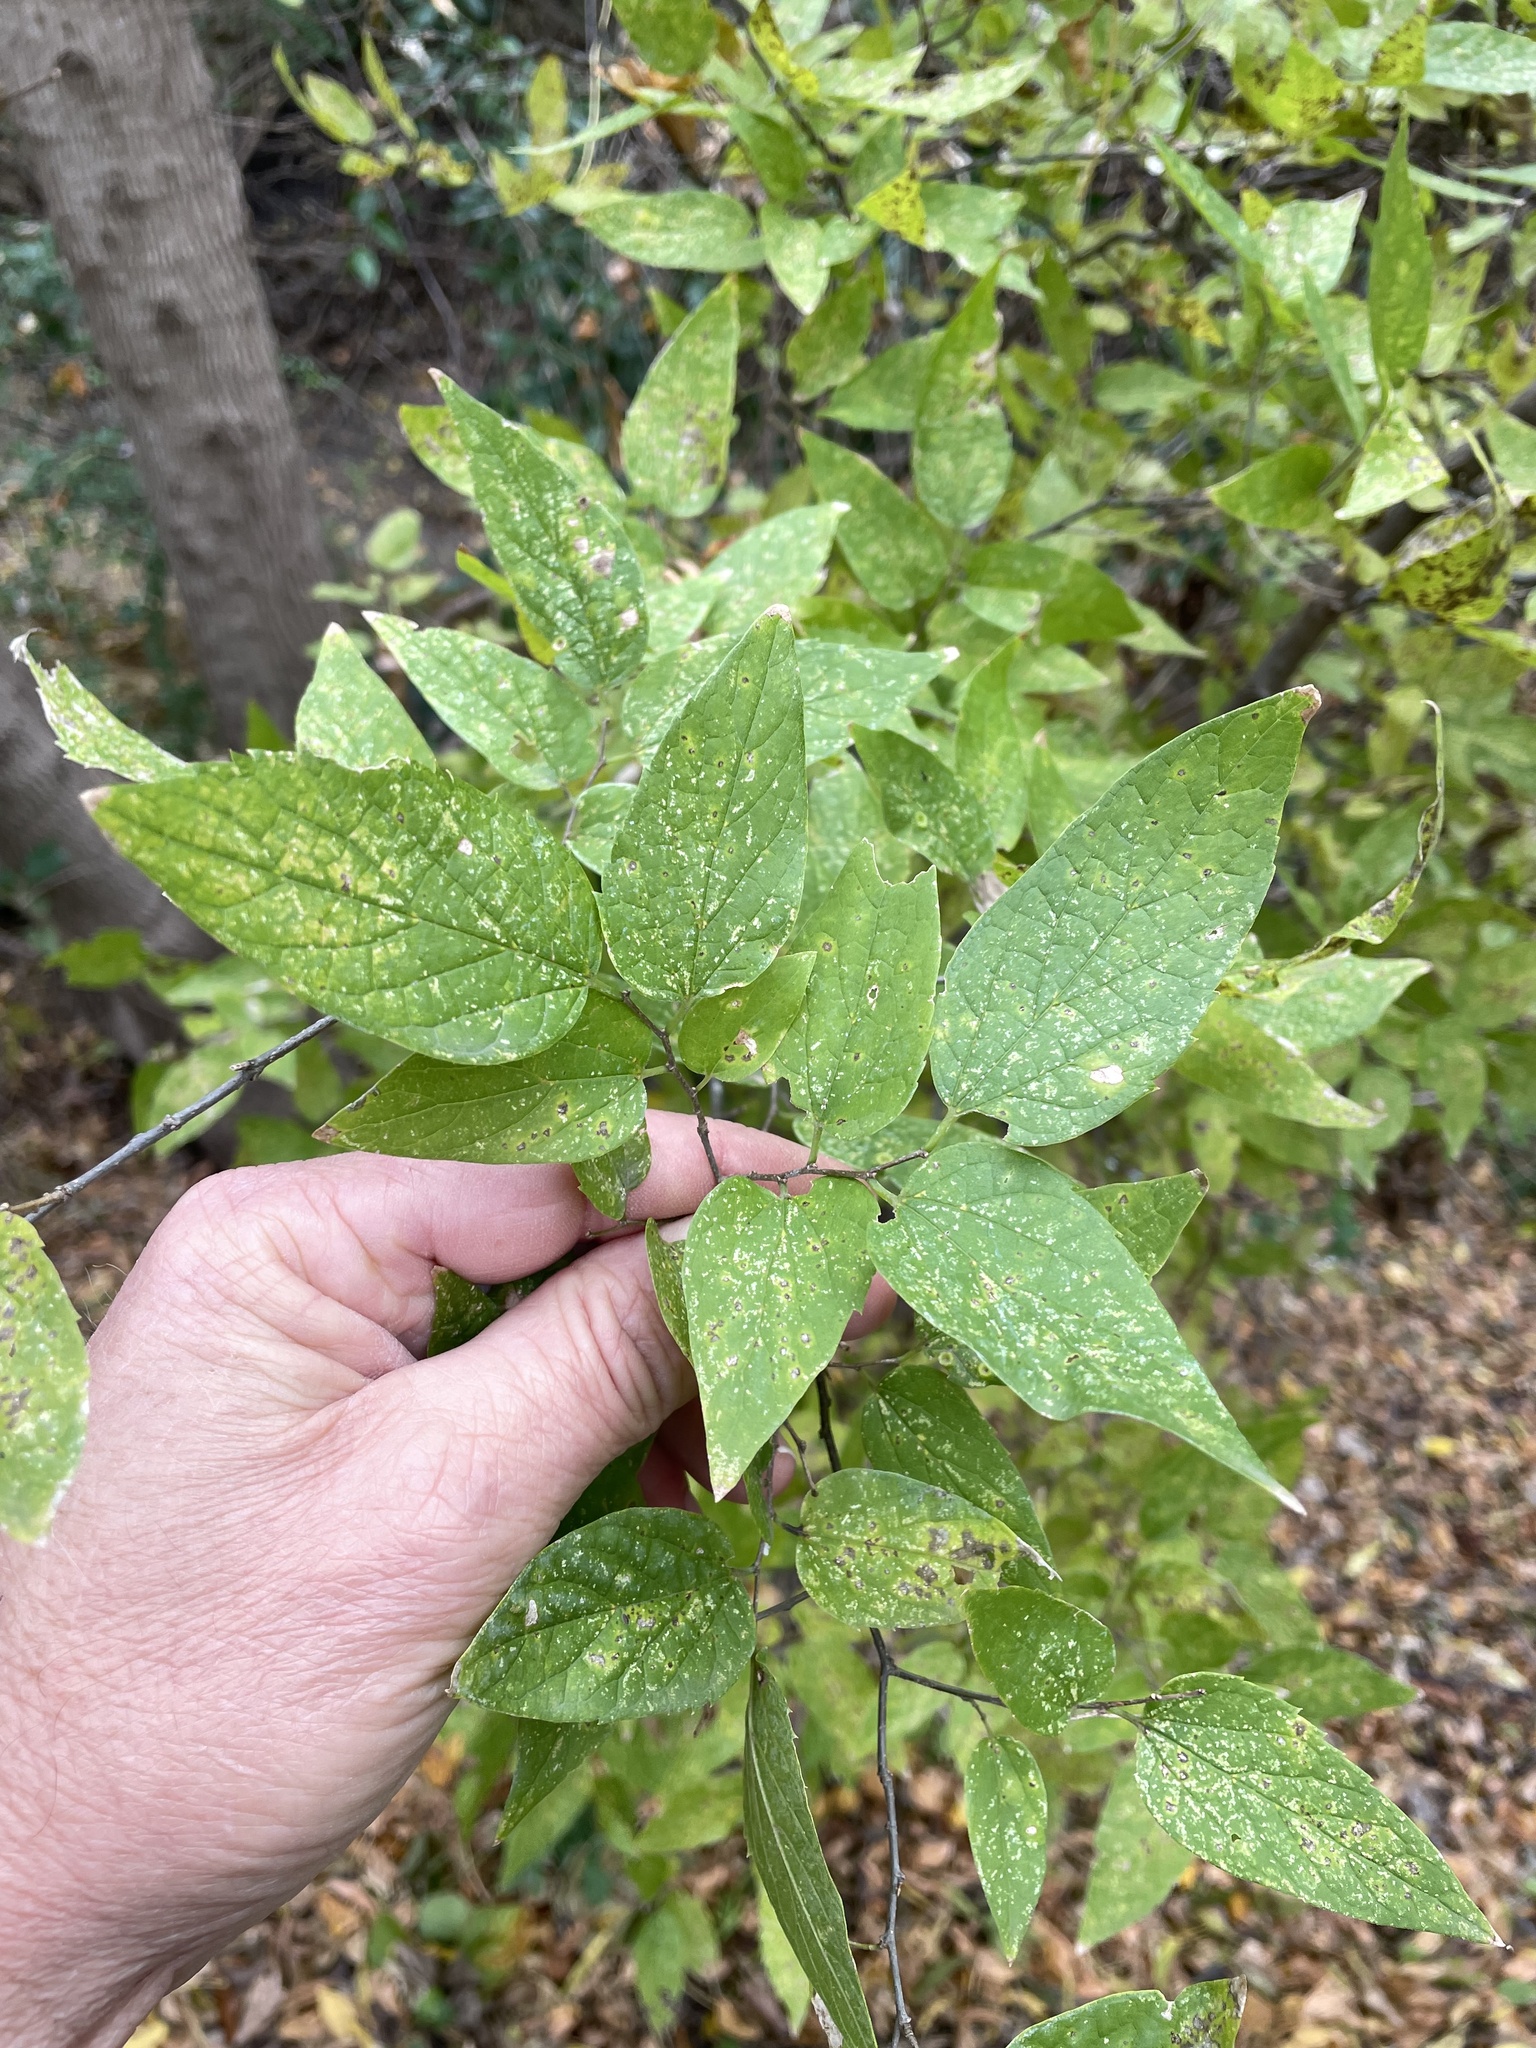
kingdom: Plantae
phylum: Tracheophyta
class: Magnoliopsida
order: Rosales
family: Cannabaceae
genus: Celtis
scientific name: Celtis laevigata
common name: Sugarberry
